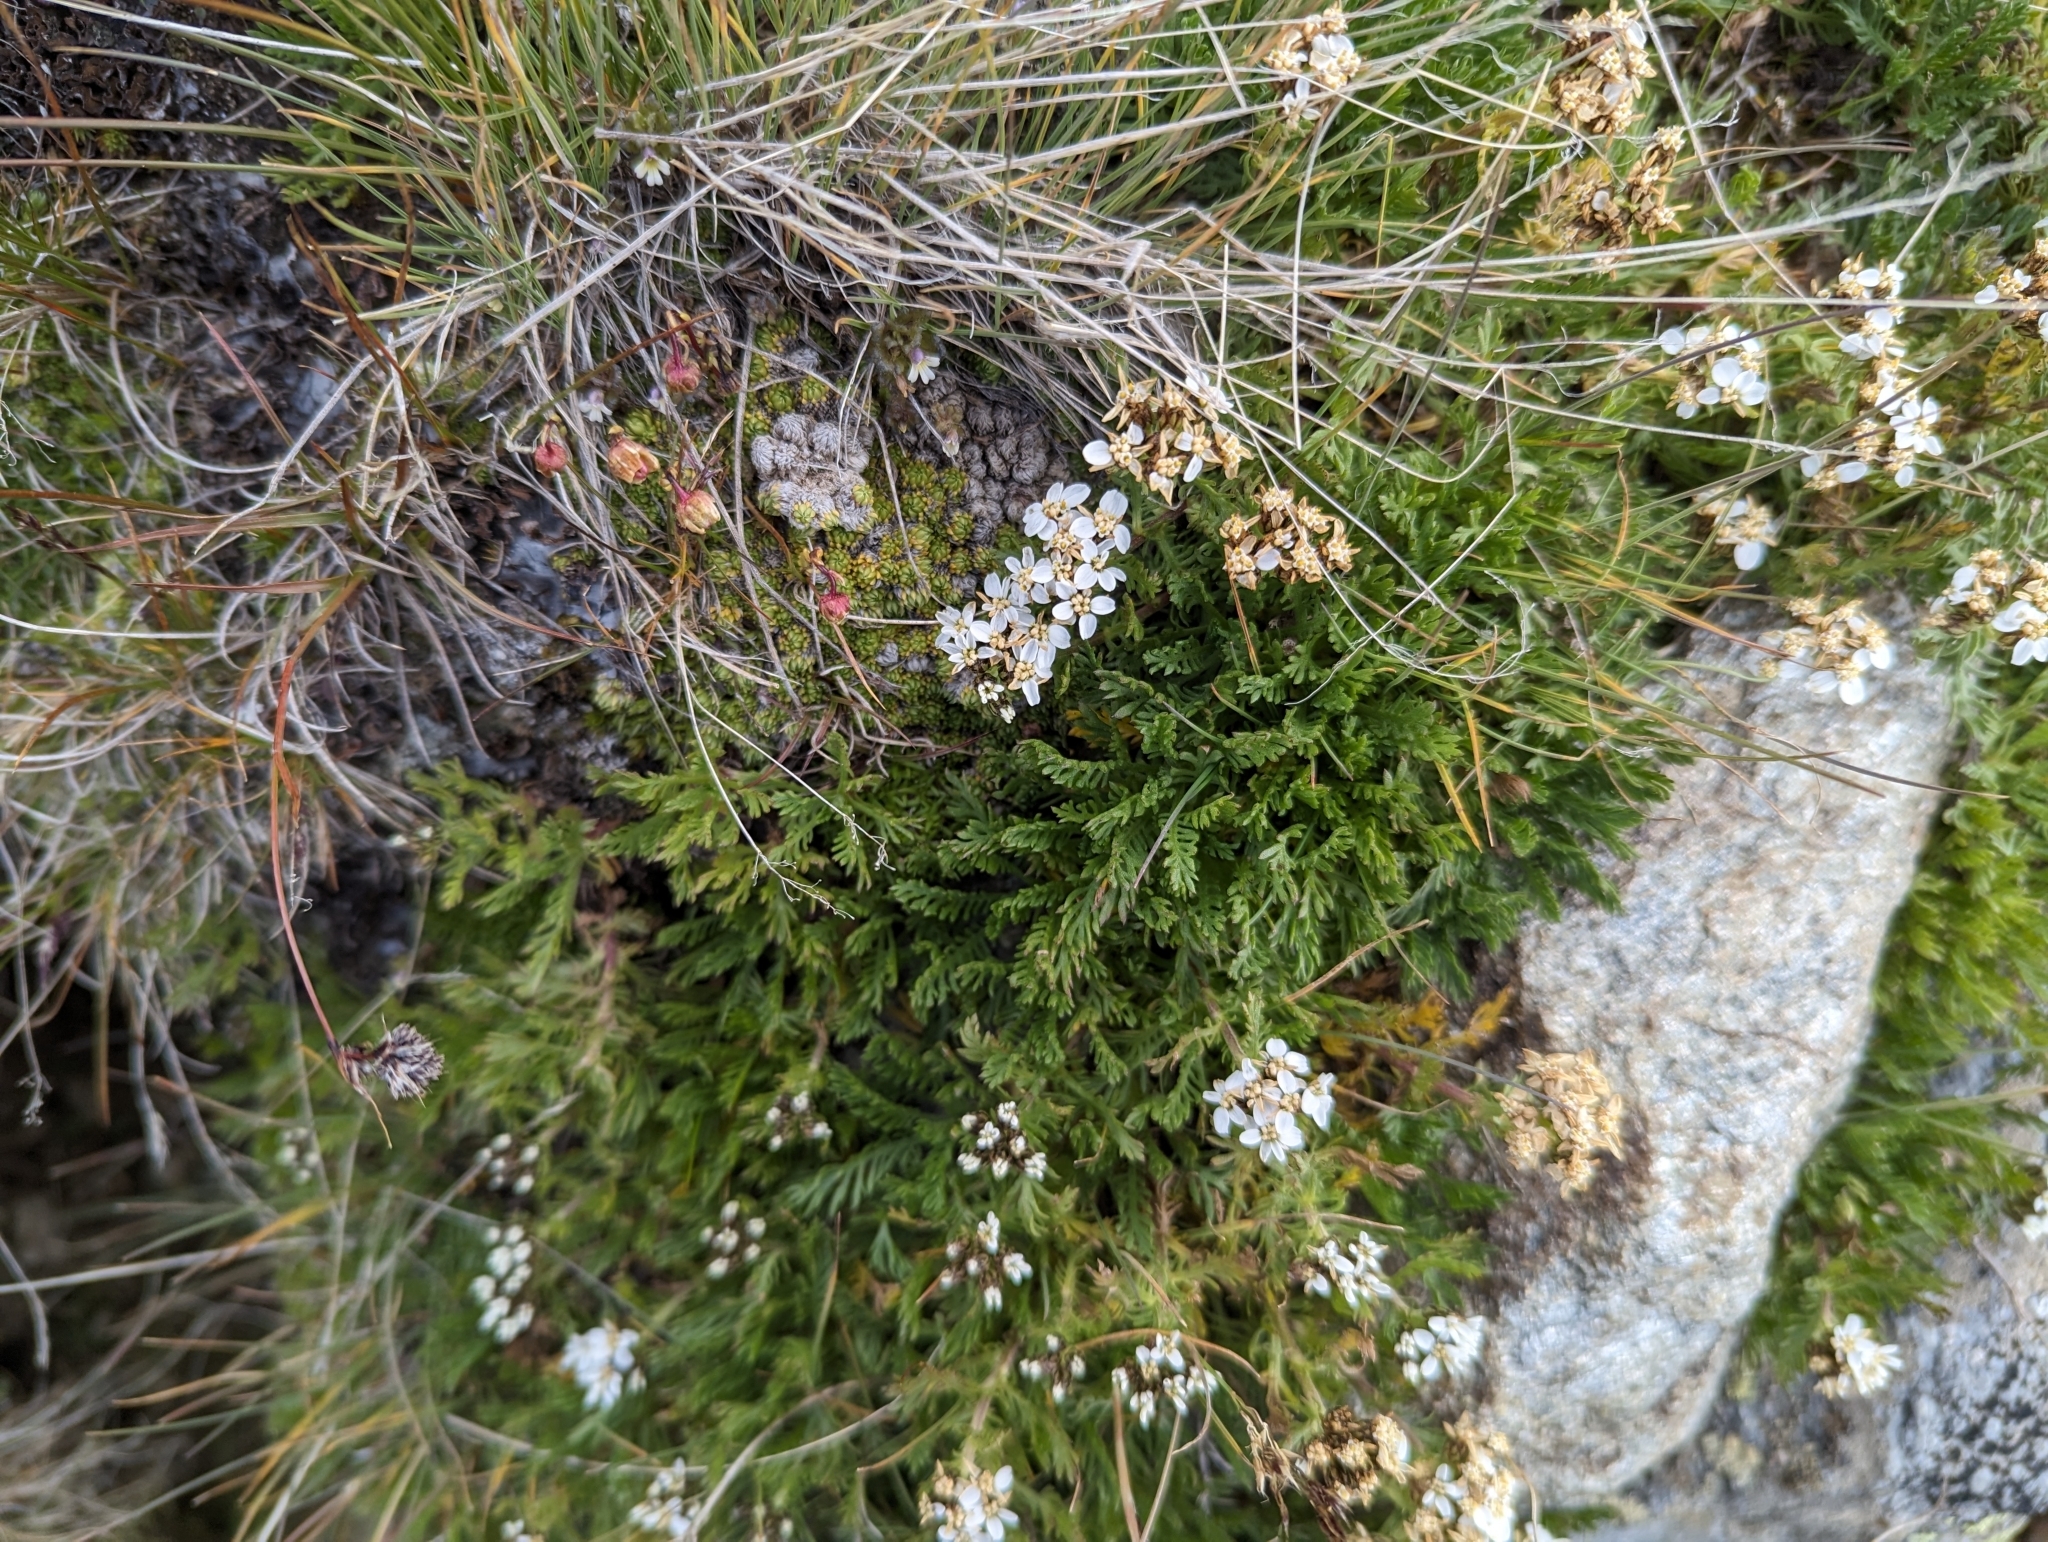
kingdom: Plantae
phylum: Tracheophyta
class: Magnoliopsida
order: Asterales
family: Asteraceae
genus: Achillea
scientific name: Achillea erba-rotta
